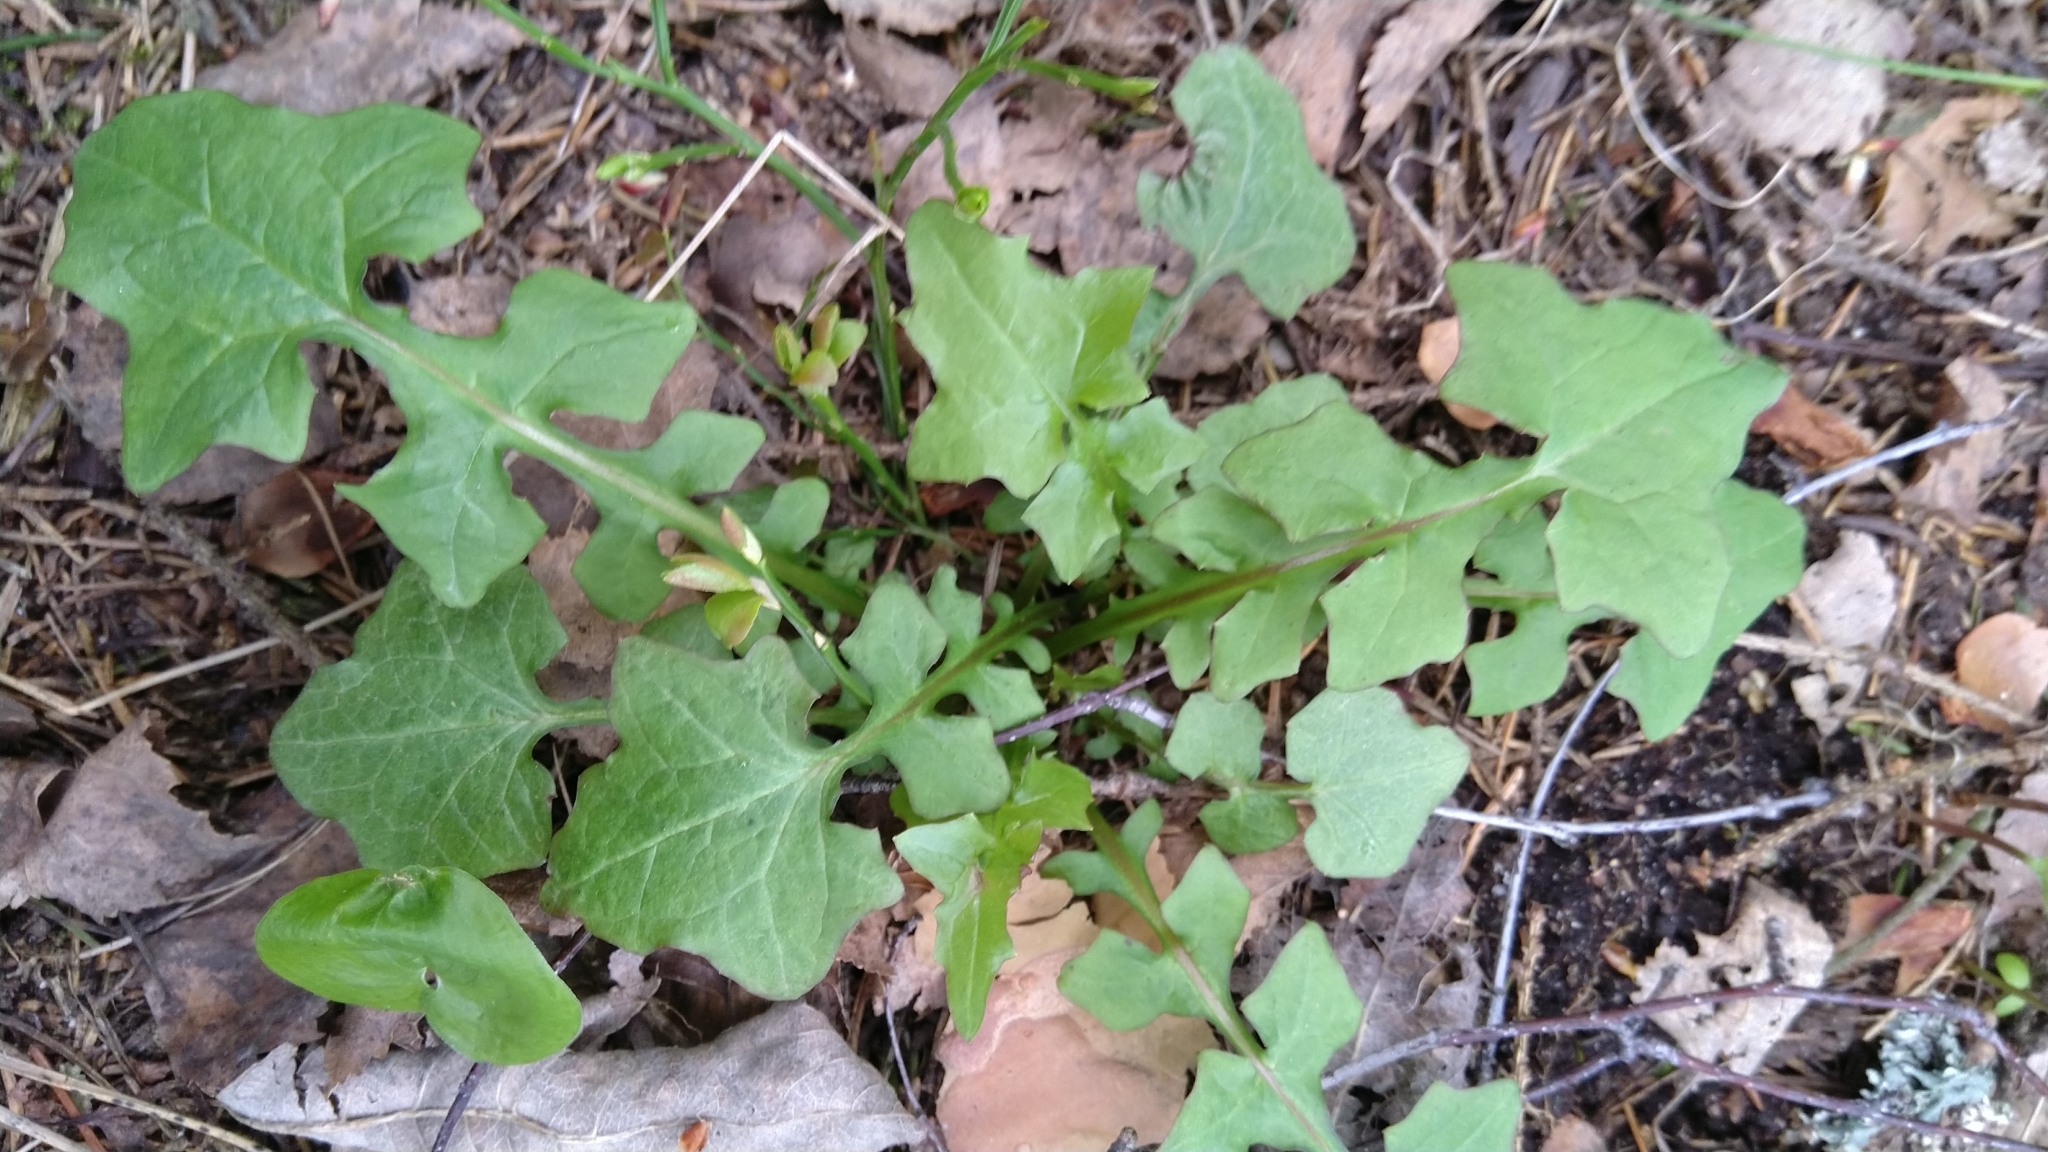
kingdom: Plantae
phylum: Tracheophyta
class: Magnoliopsida
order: Asterales
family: Asteraceae
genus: Mycelis
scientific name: Mycelis muralis
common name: Wall lettuce
